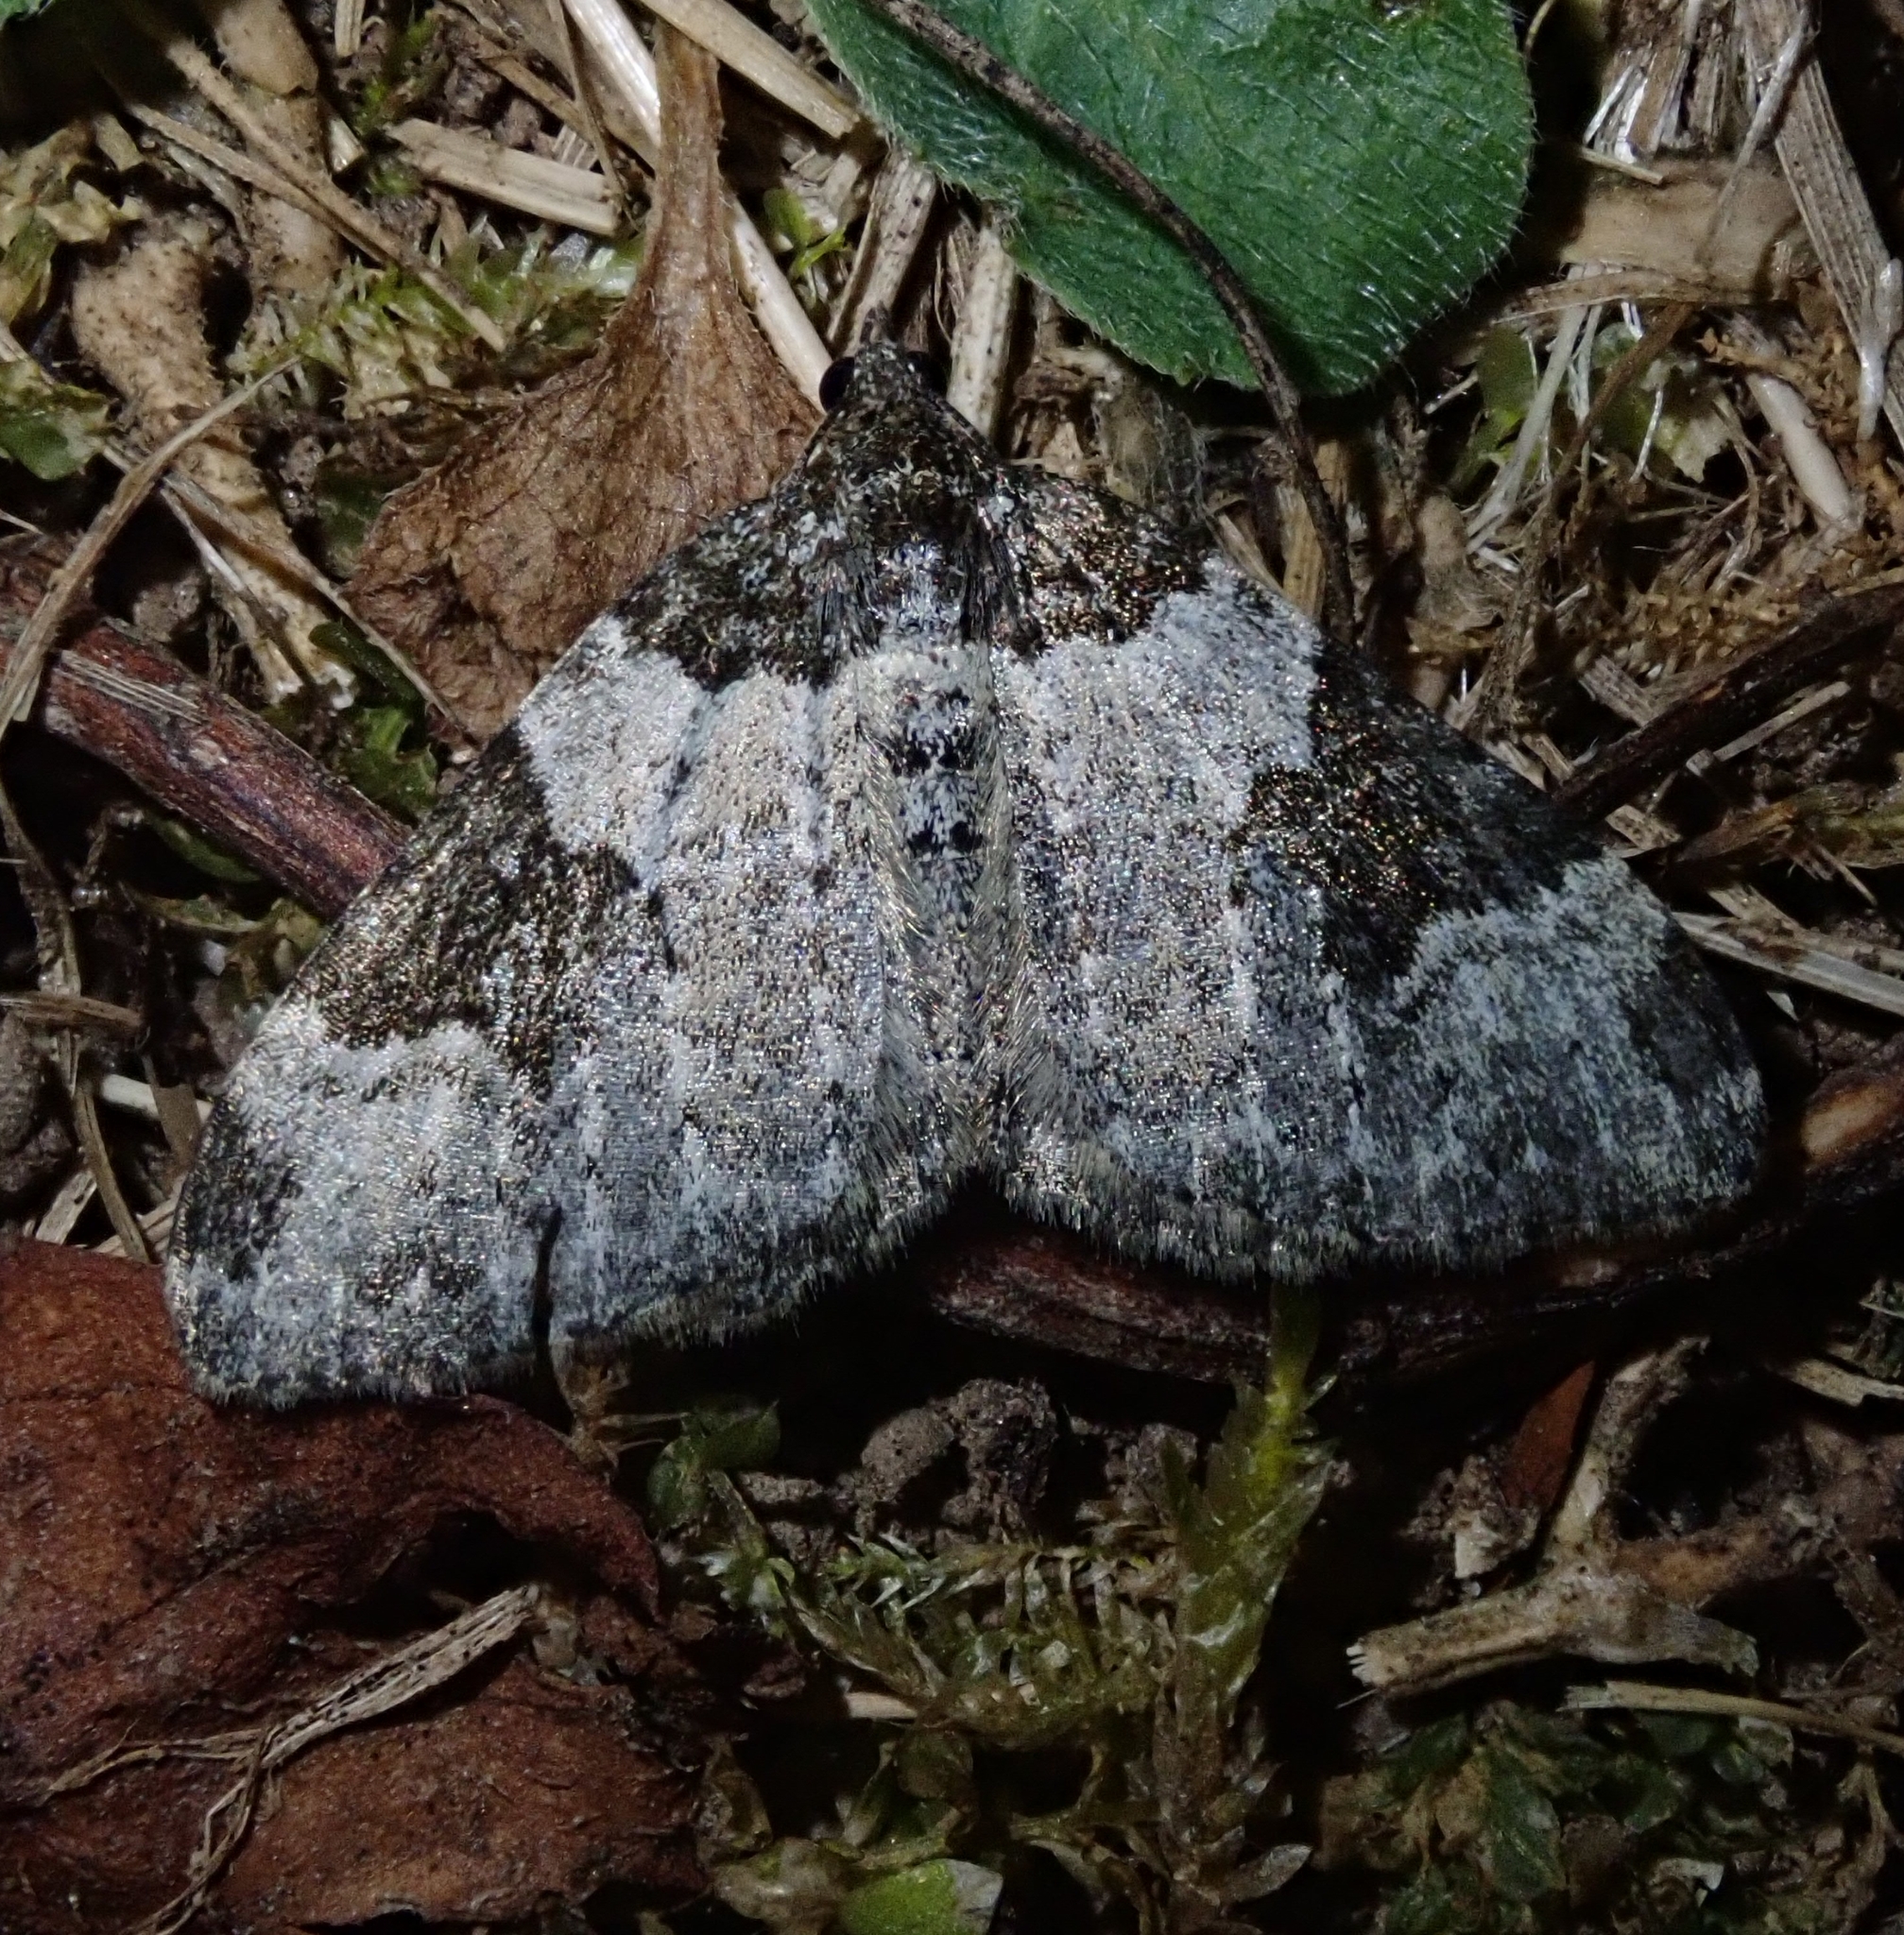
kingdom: Animalia
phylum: Arthropoda
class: Insecta
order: Lepidoptera
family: Geometridae
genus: Xanthorhoe
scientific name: Xanthorhoe fluctuata
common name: Garden carpet
